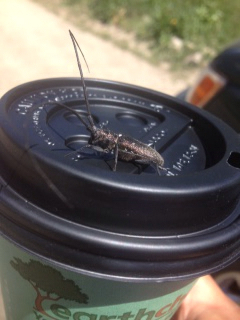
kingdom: Animalia
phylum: Arthropoda
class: Insecta
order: Coleoptera
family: Cerambycidae
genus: Monochamus
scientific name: Monochamus scutellatus
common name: White-spotted sawyer beetle
